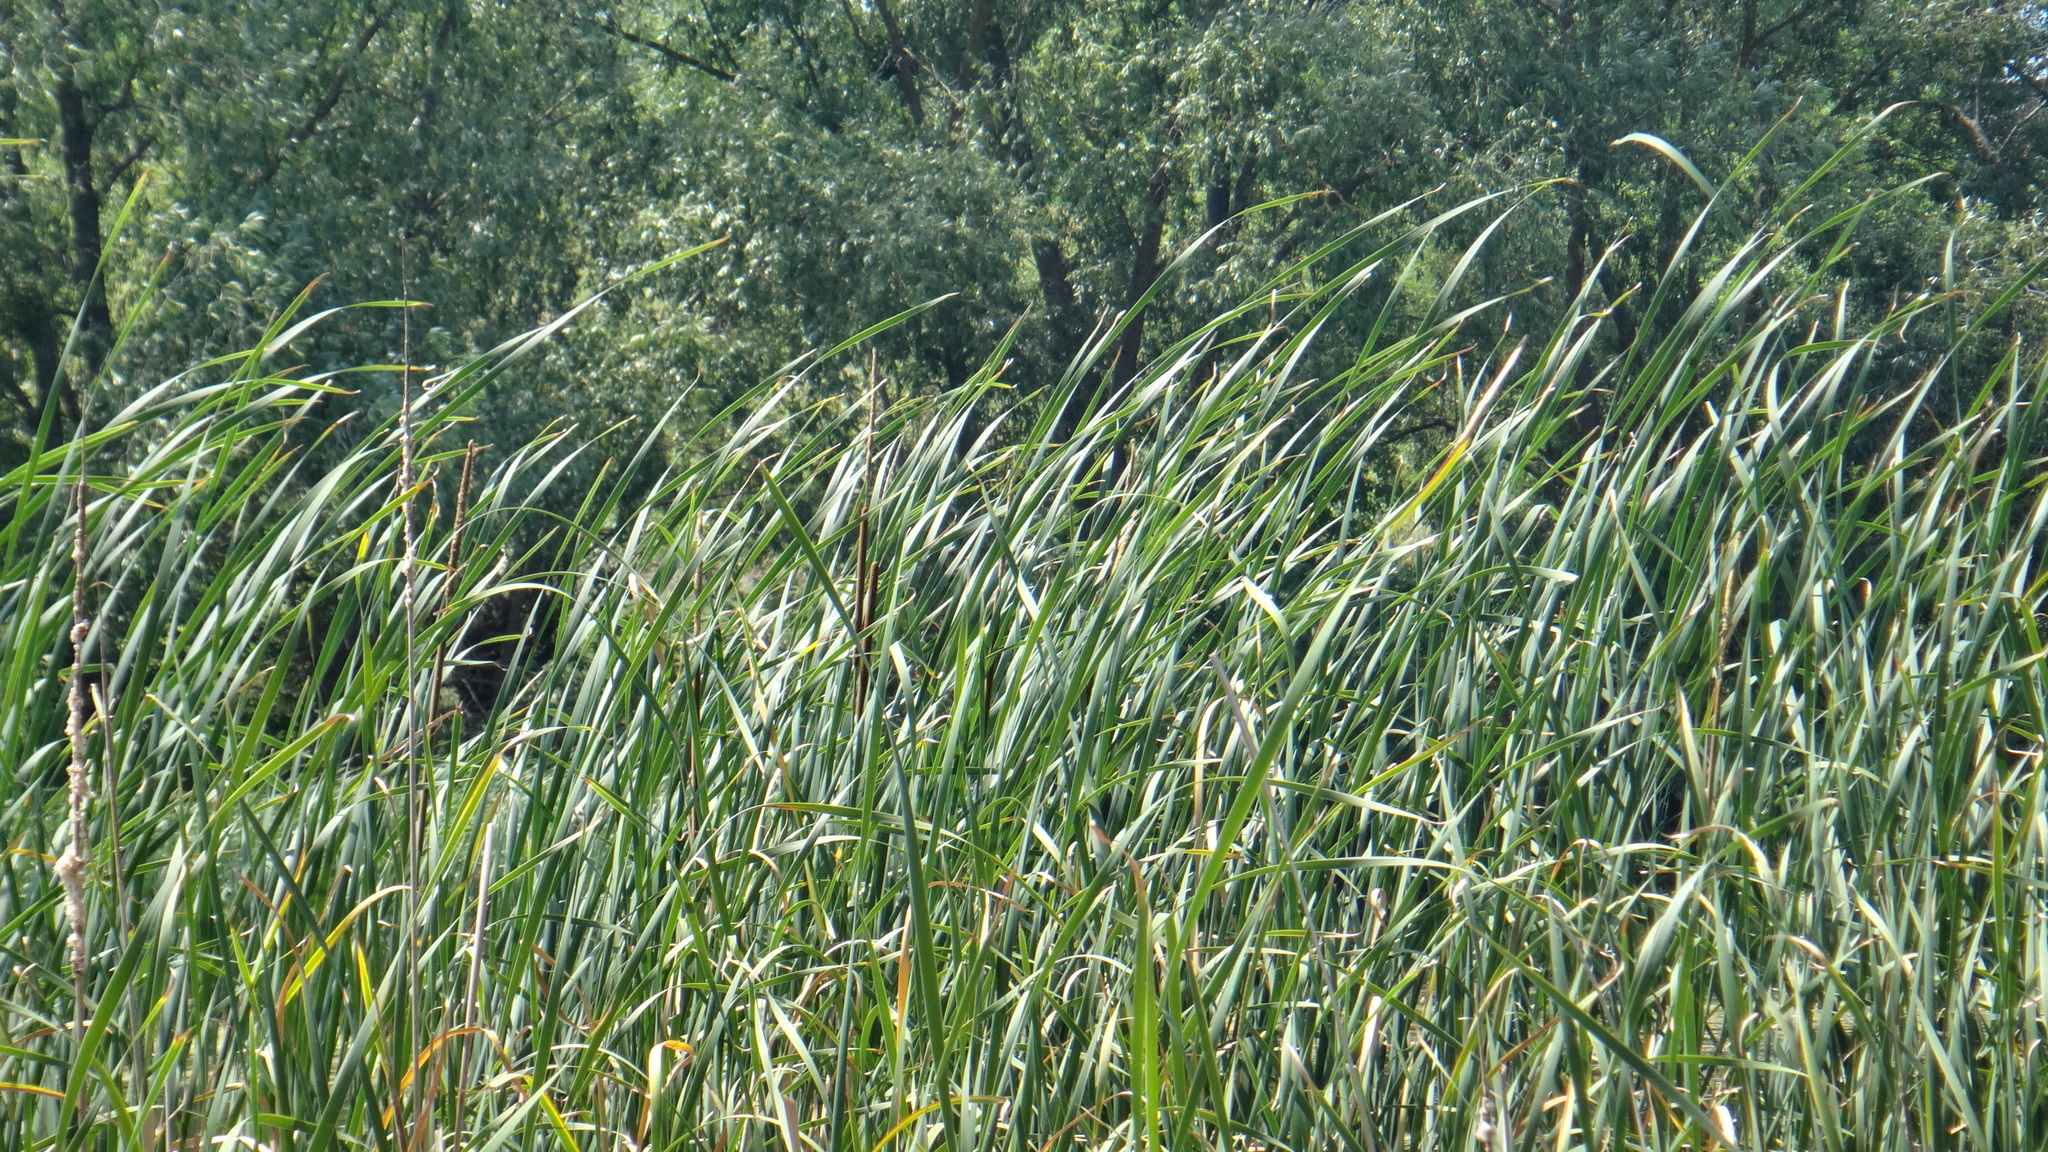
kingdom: Plantae
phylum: Tracheophyta
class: Liliopsida
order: Poales
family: Typhaceae
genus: Typha
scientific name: Typha angustifolia
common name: Lesser bulrush
